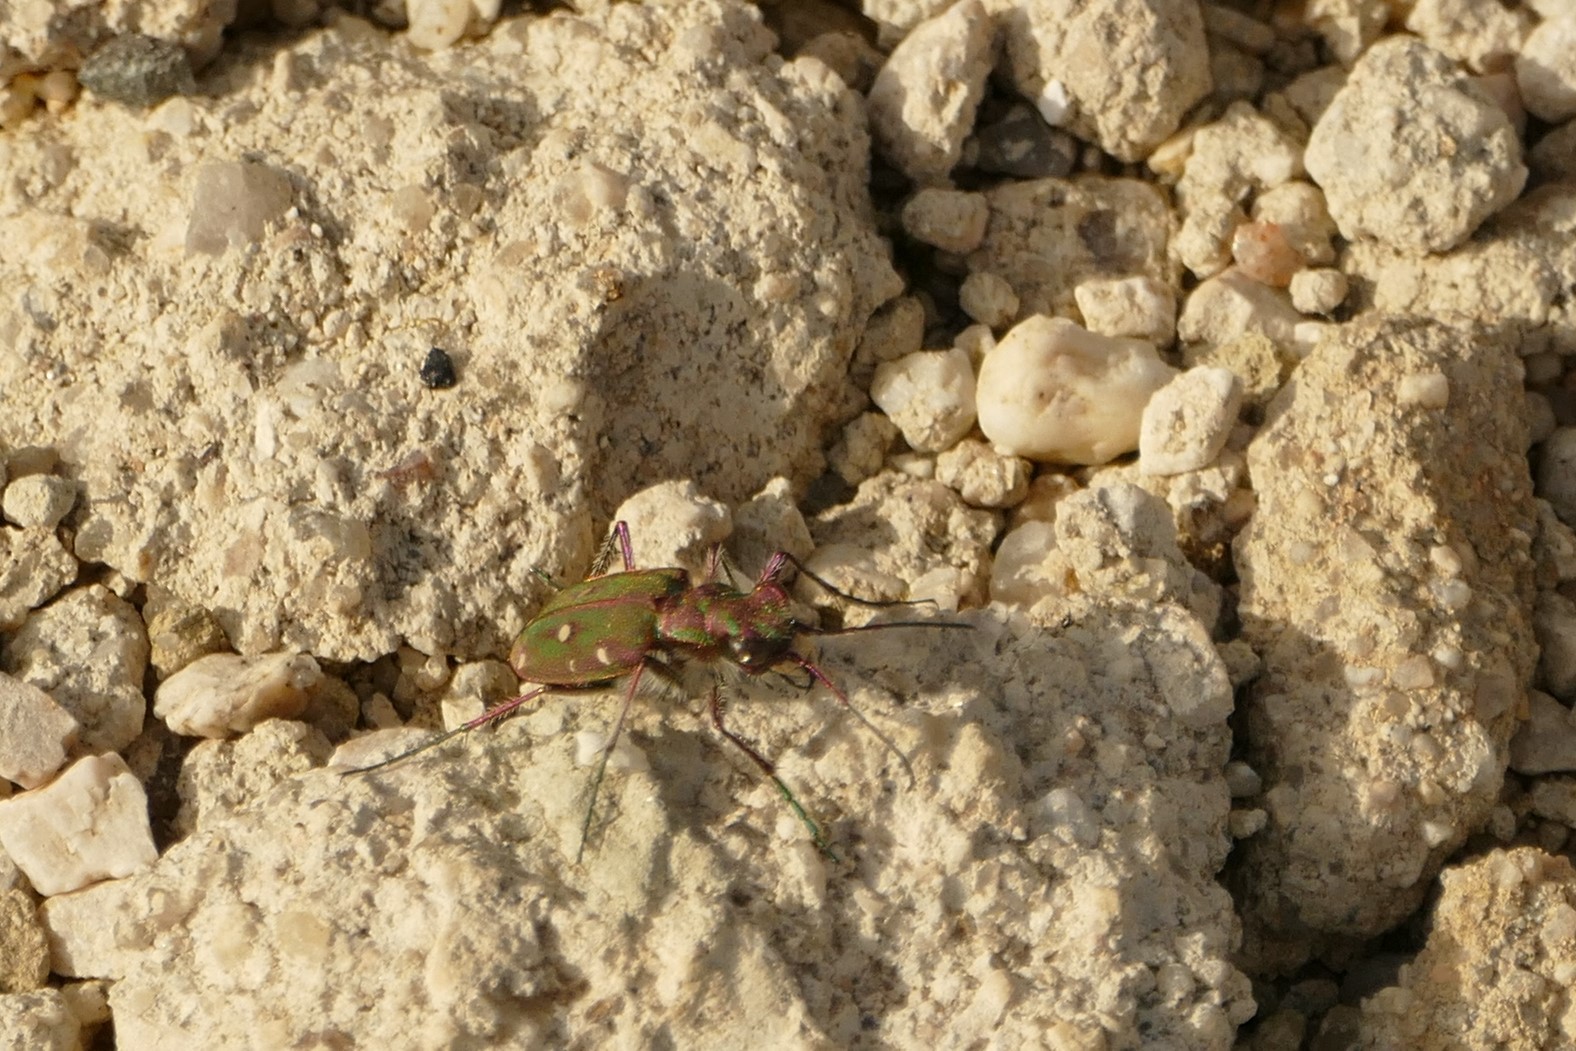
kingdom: Animalia
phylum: Arthropoda
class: Insecta
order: Coleoptera
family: Carabidae
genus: Cicindela
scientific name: Cicindela maroccana
